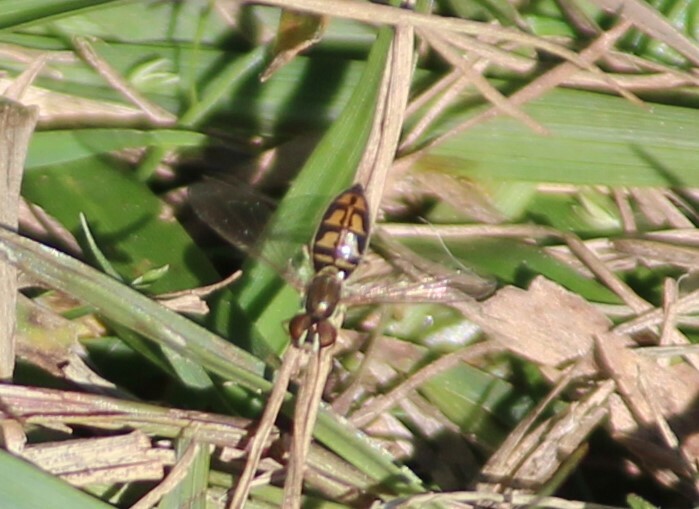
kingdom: Animalia
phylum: Arthropoda
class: Insecta
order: Diptera
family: Syrphidae
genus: Toxomerus
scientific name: Toxomerus marginatus
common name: Syrphid fly
